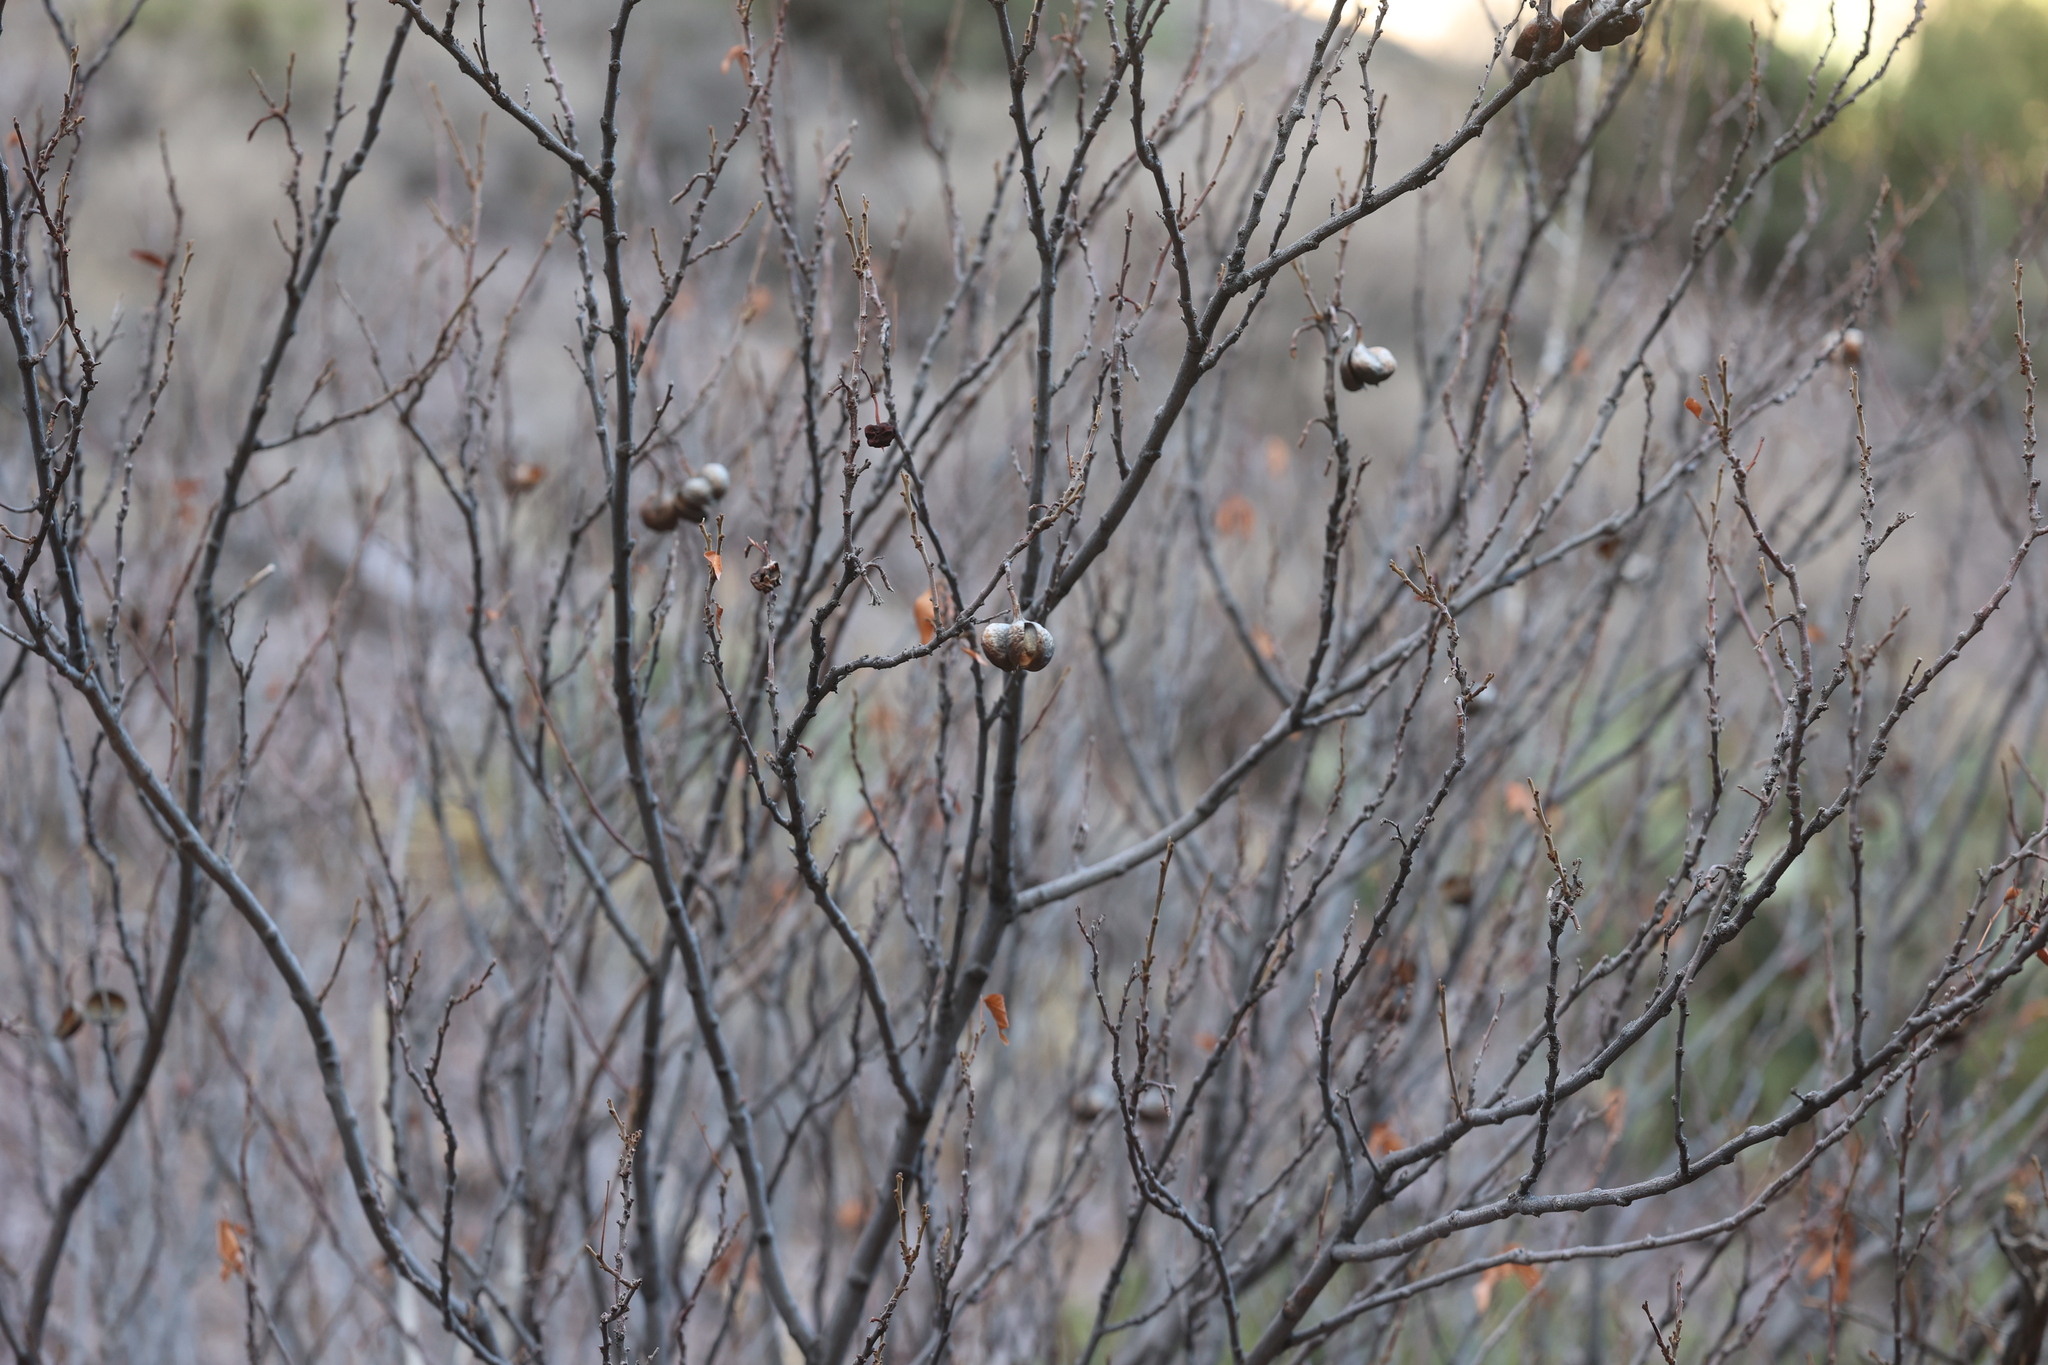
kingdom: Plantae
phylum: Tracheophyta
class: Magnoliopsida
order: Sapindales
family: Sapindaceae
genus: Ungnadia
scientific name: Ungnadia speciosa
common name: Texas-buckeye
